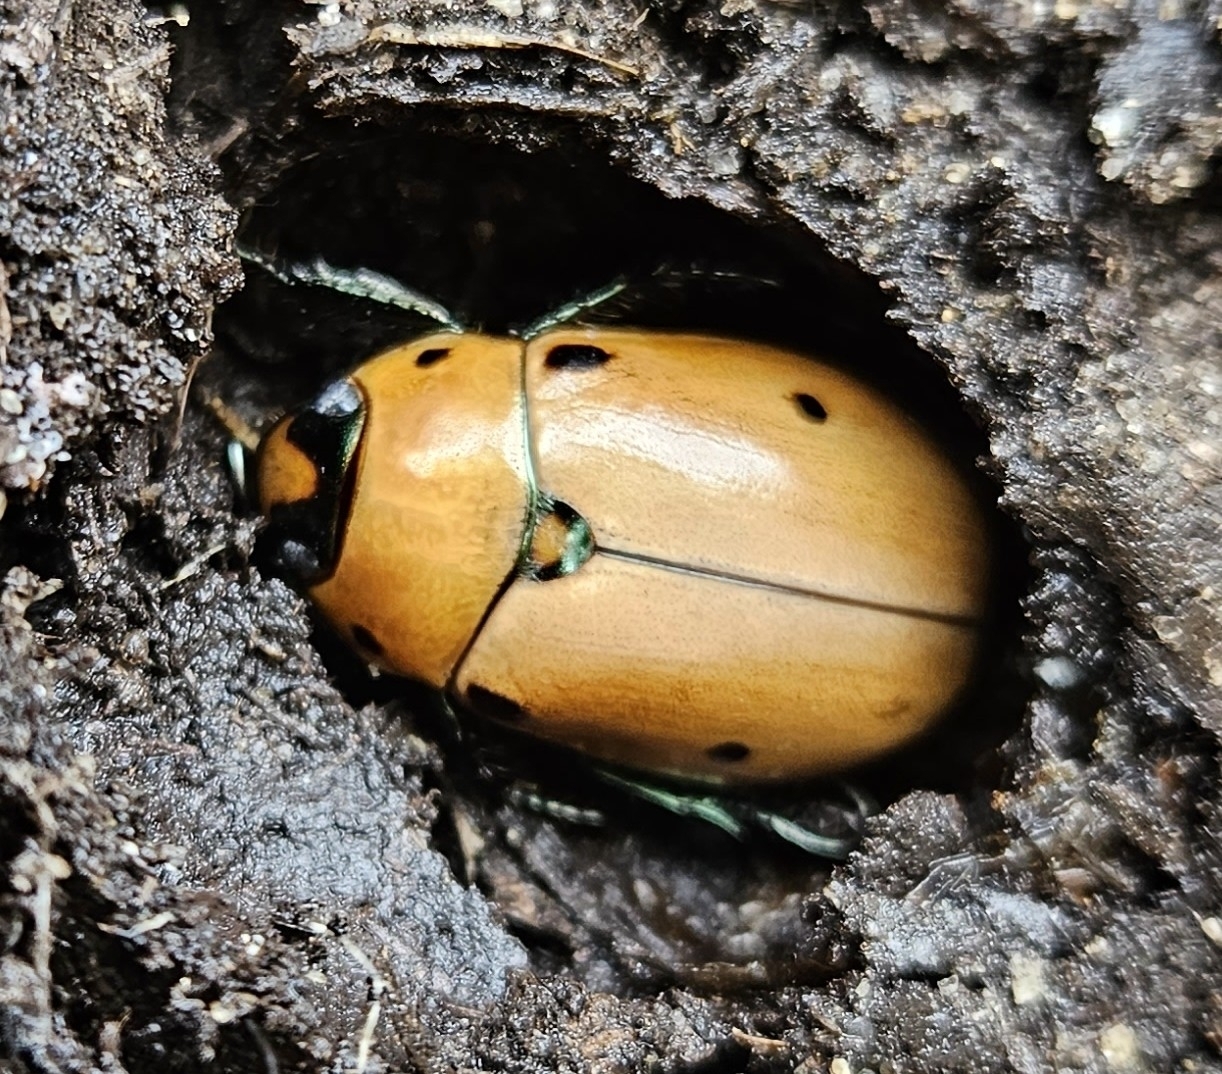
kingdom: Animalia
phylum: Arthropoda
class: Insecta
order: Coleoptera
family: Scarabaeidae
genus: Pelidnota
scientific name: Pelidnota punctata
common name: Grapevine beetle
